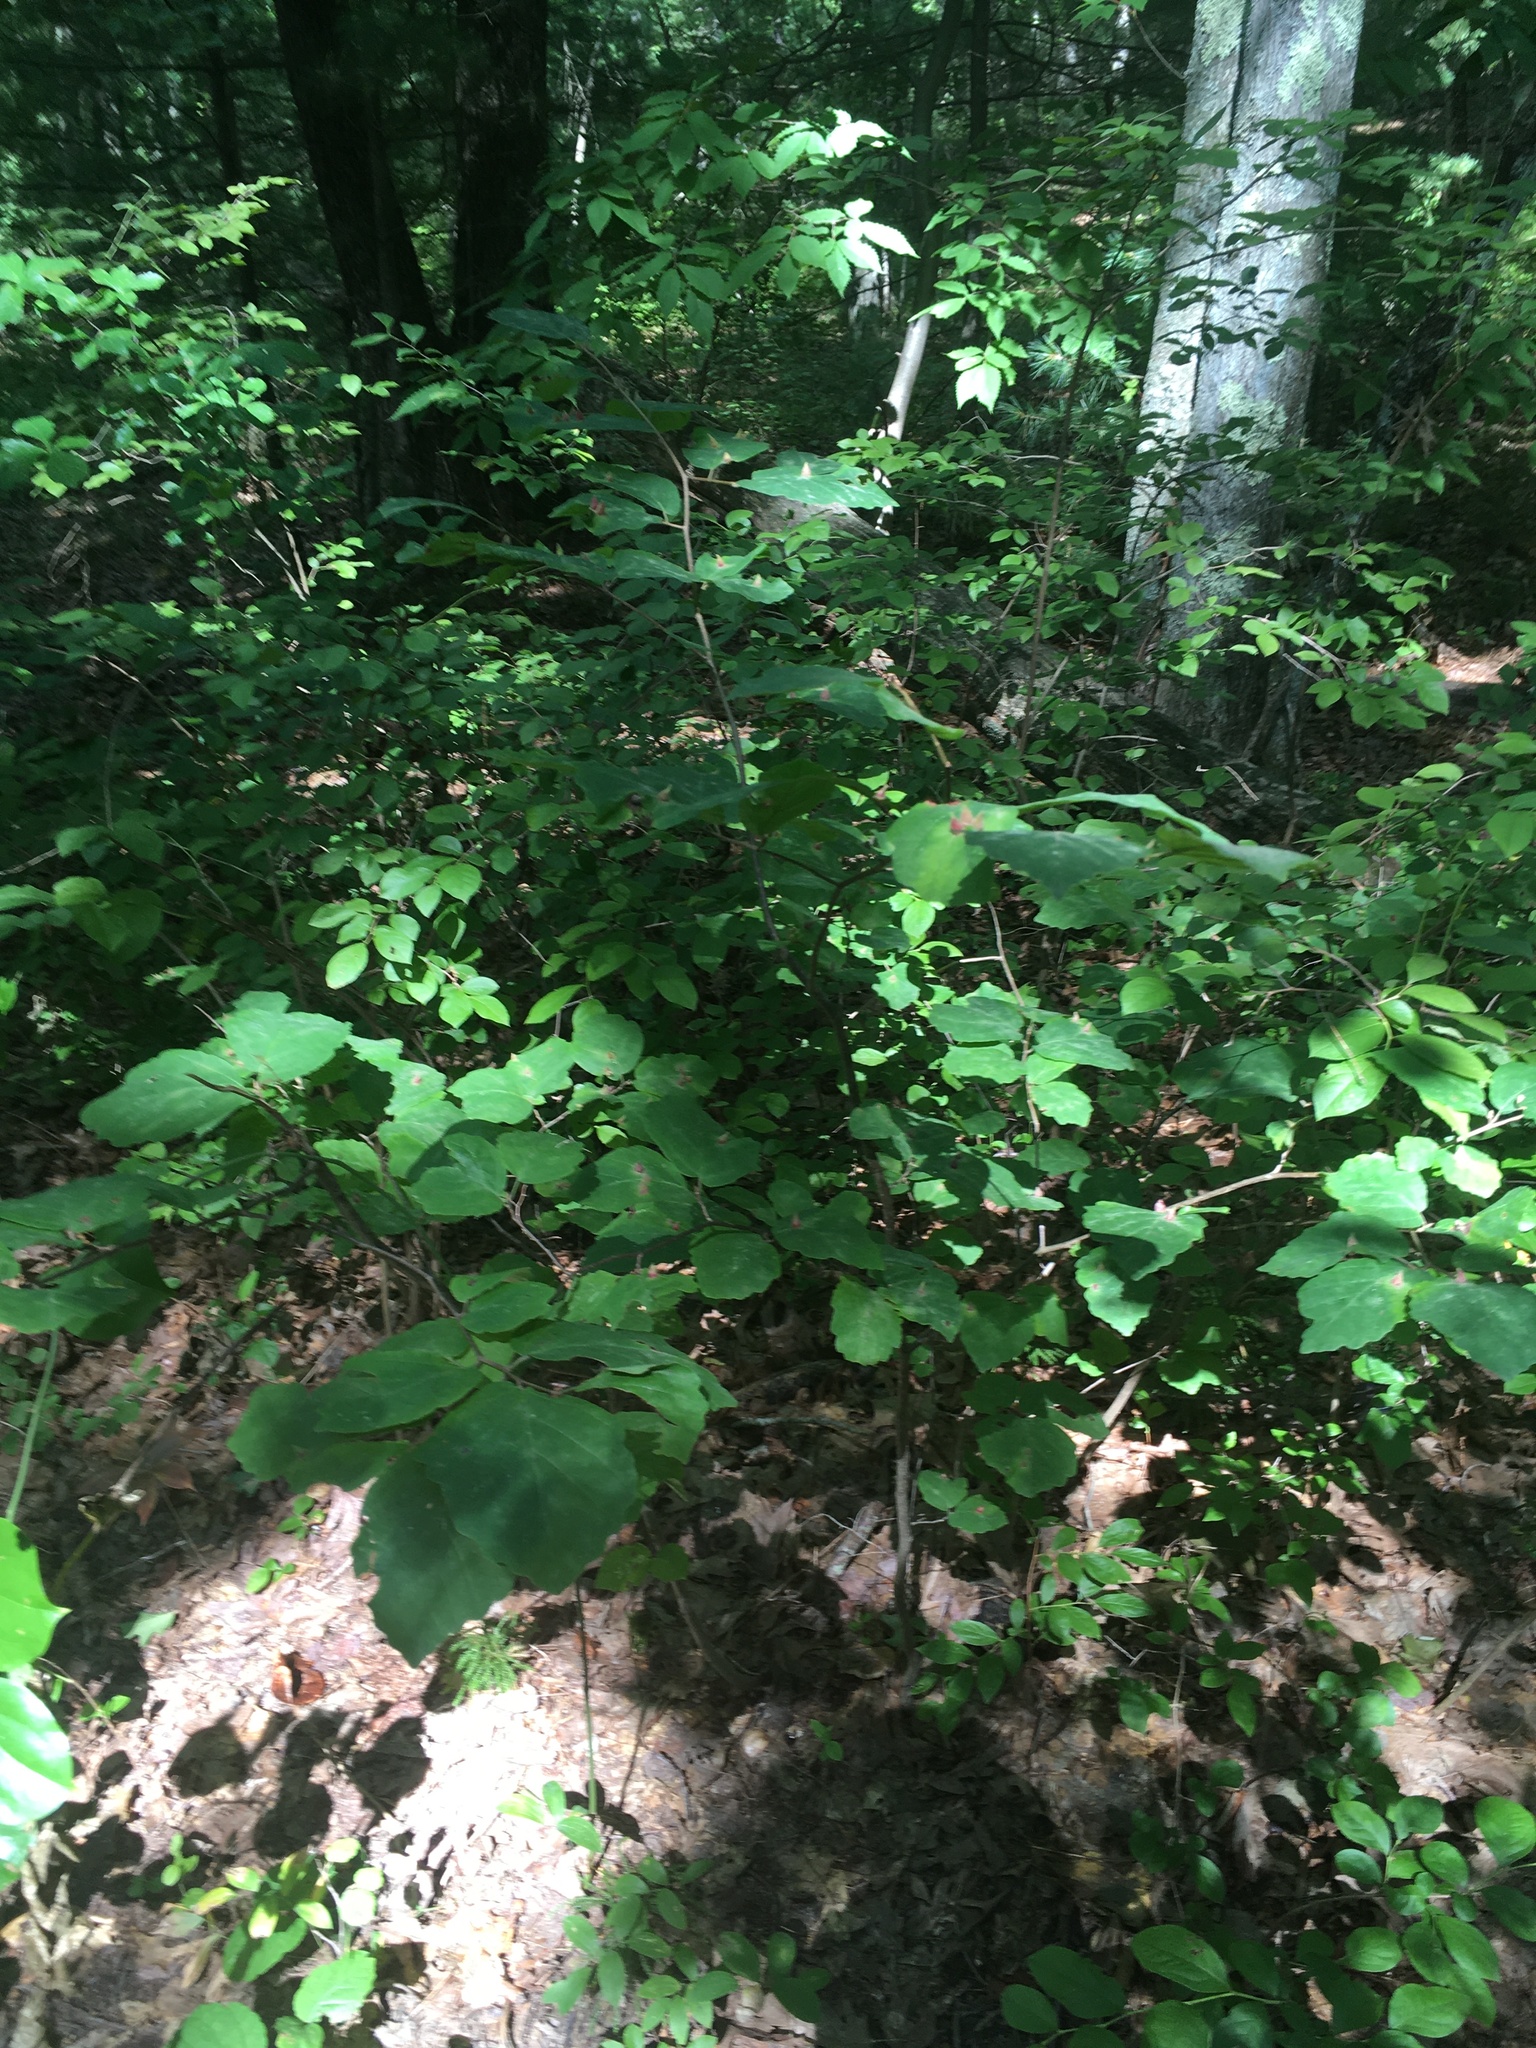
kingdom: Plantae
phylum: Tracheophyta
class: Magnoliopsida
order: Saxifragales
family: Hamamelidaceae
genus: Hamamelis
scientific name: Hamamelis virginiana
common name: Witch-hazel
